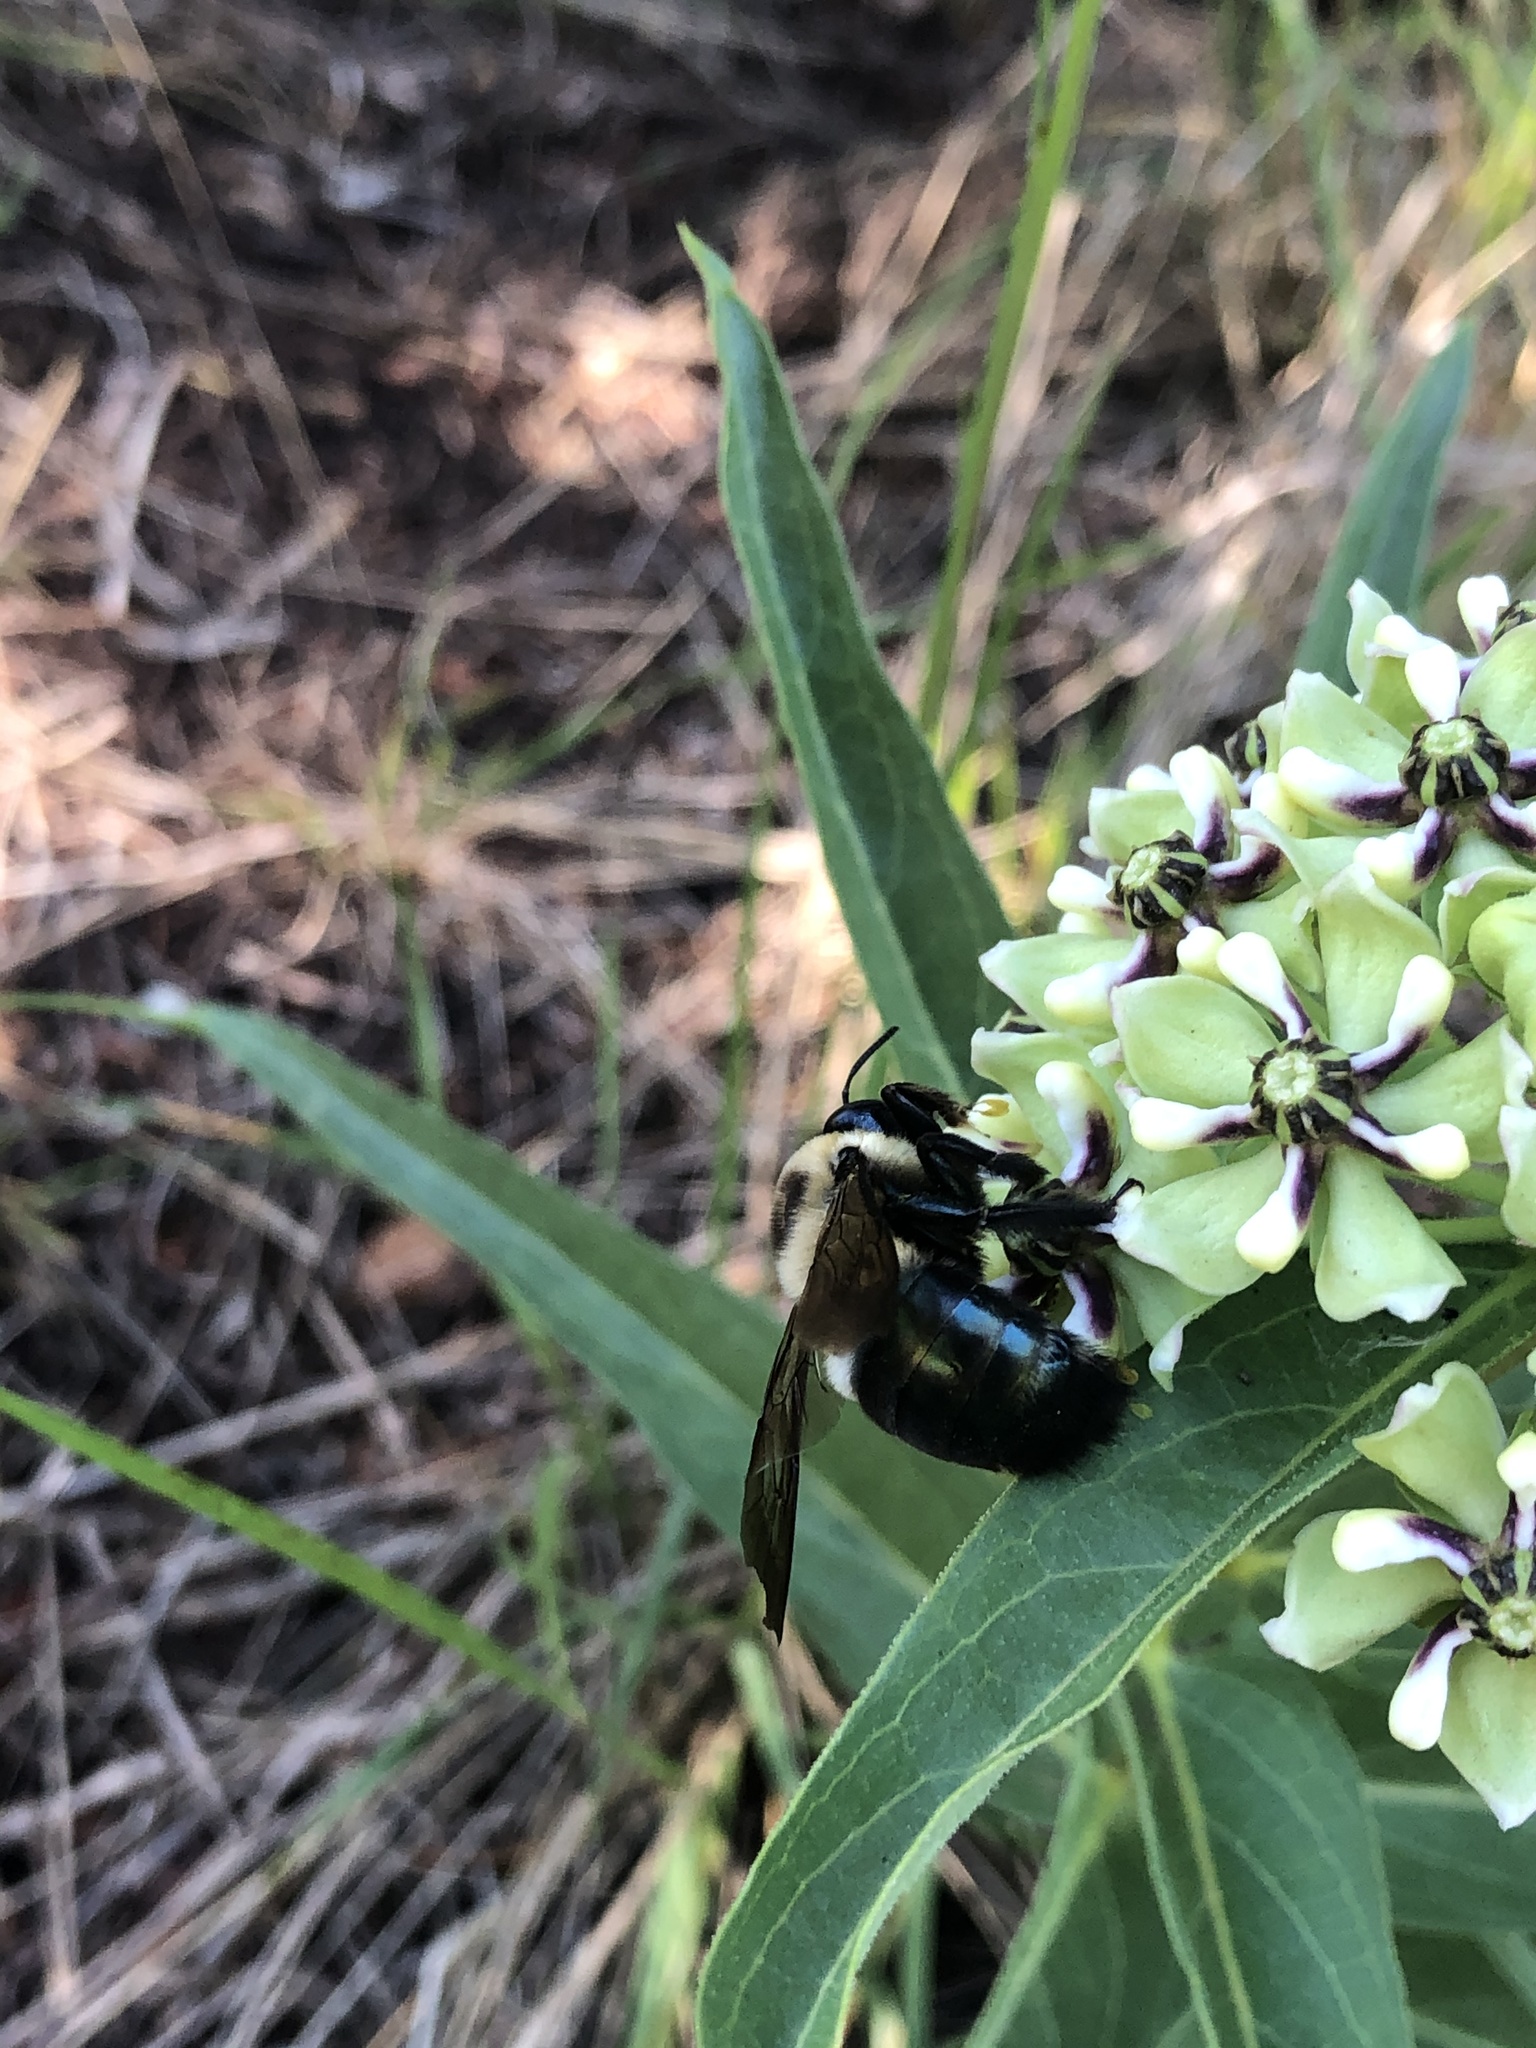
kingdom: Animalia
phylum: Arthropoda
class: Insecta
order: Hymenoptera
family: Apidae
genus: Xylocopa
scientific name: Xylocopa virginica
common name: Carpenter bee
